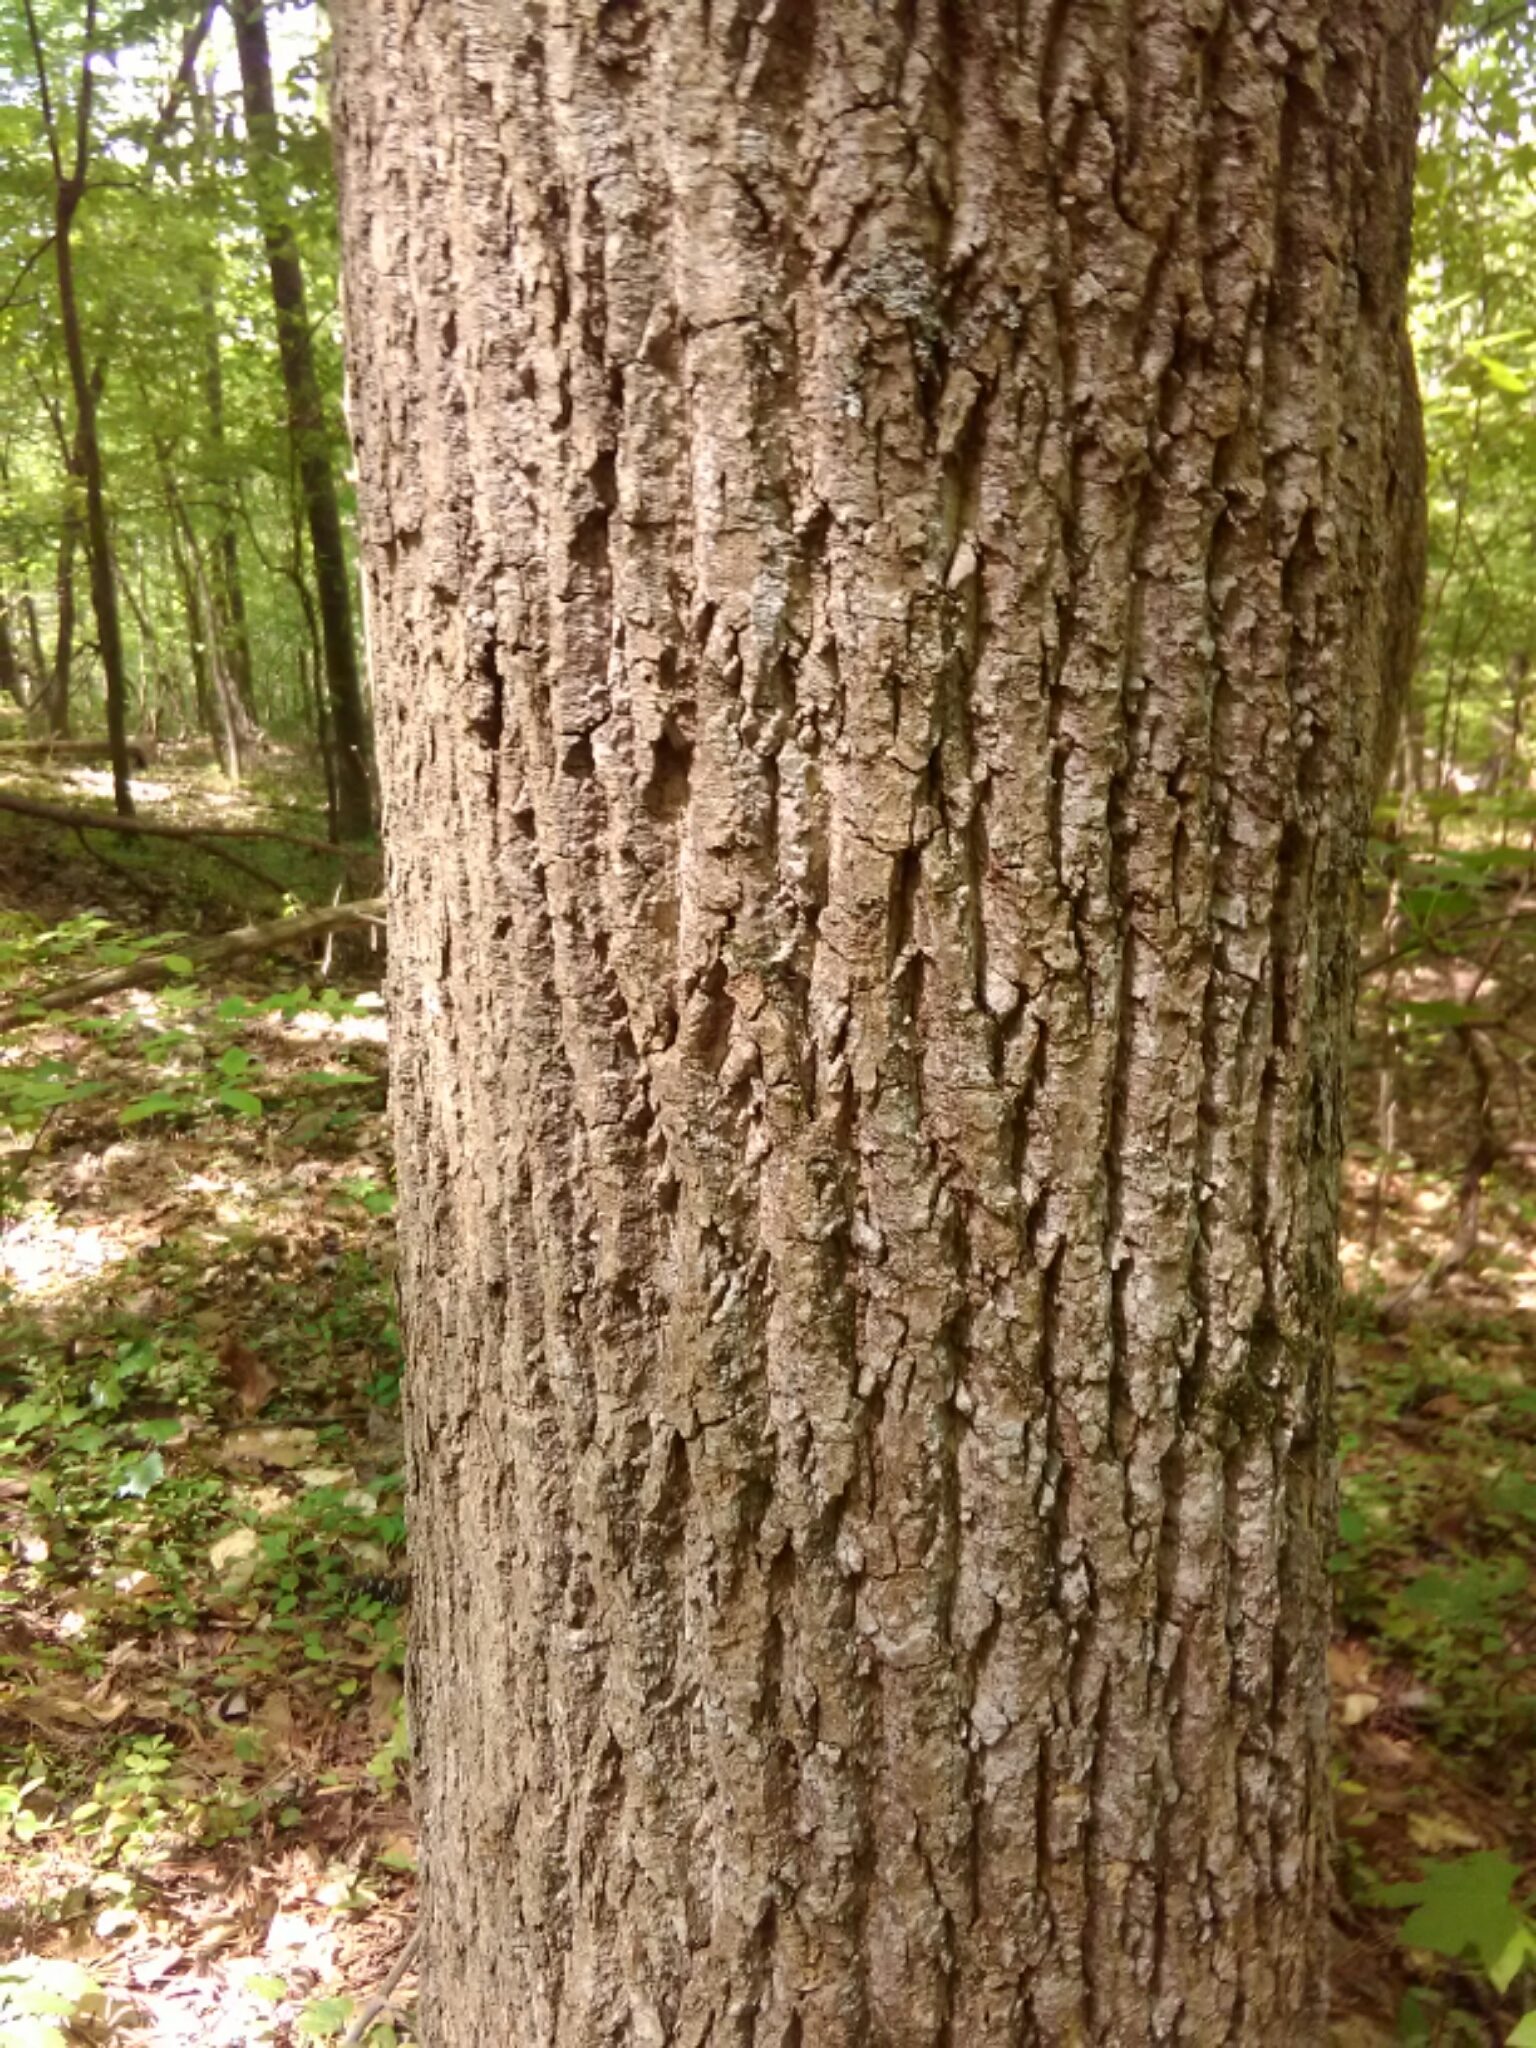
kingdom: Plantae
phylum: Tracheophyta
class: Magnoliopsida
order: Magnoliales
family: Magnoliaceae
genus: Liriodendron
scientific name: Liriodendron tulipifera
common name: Tulip tree
